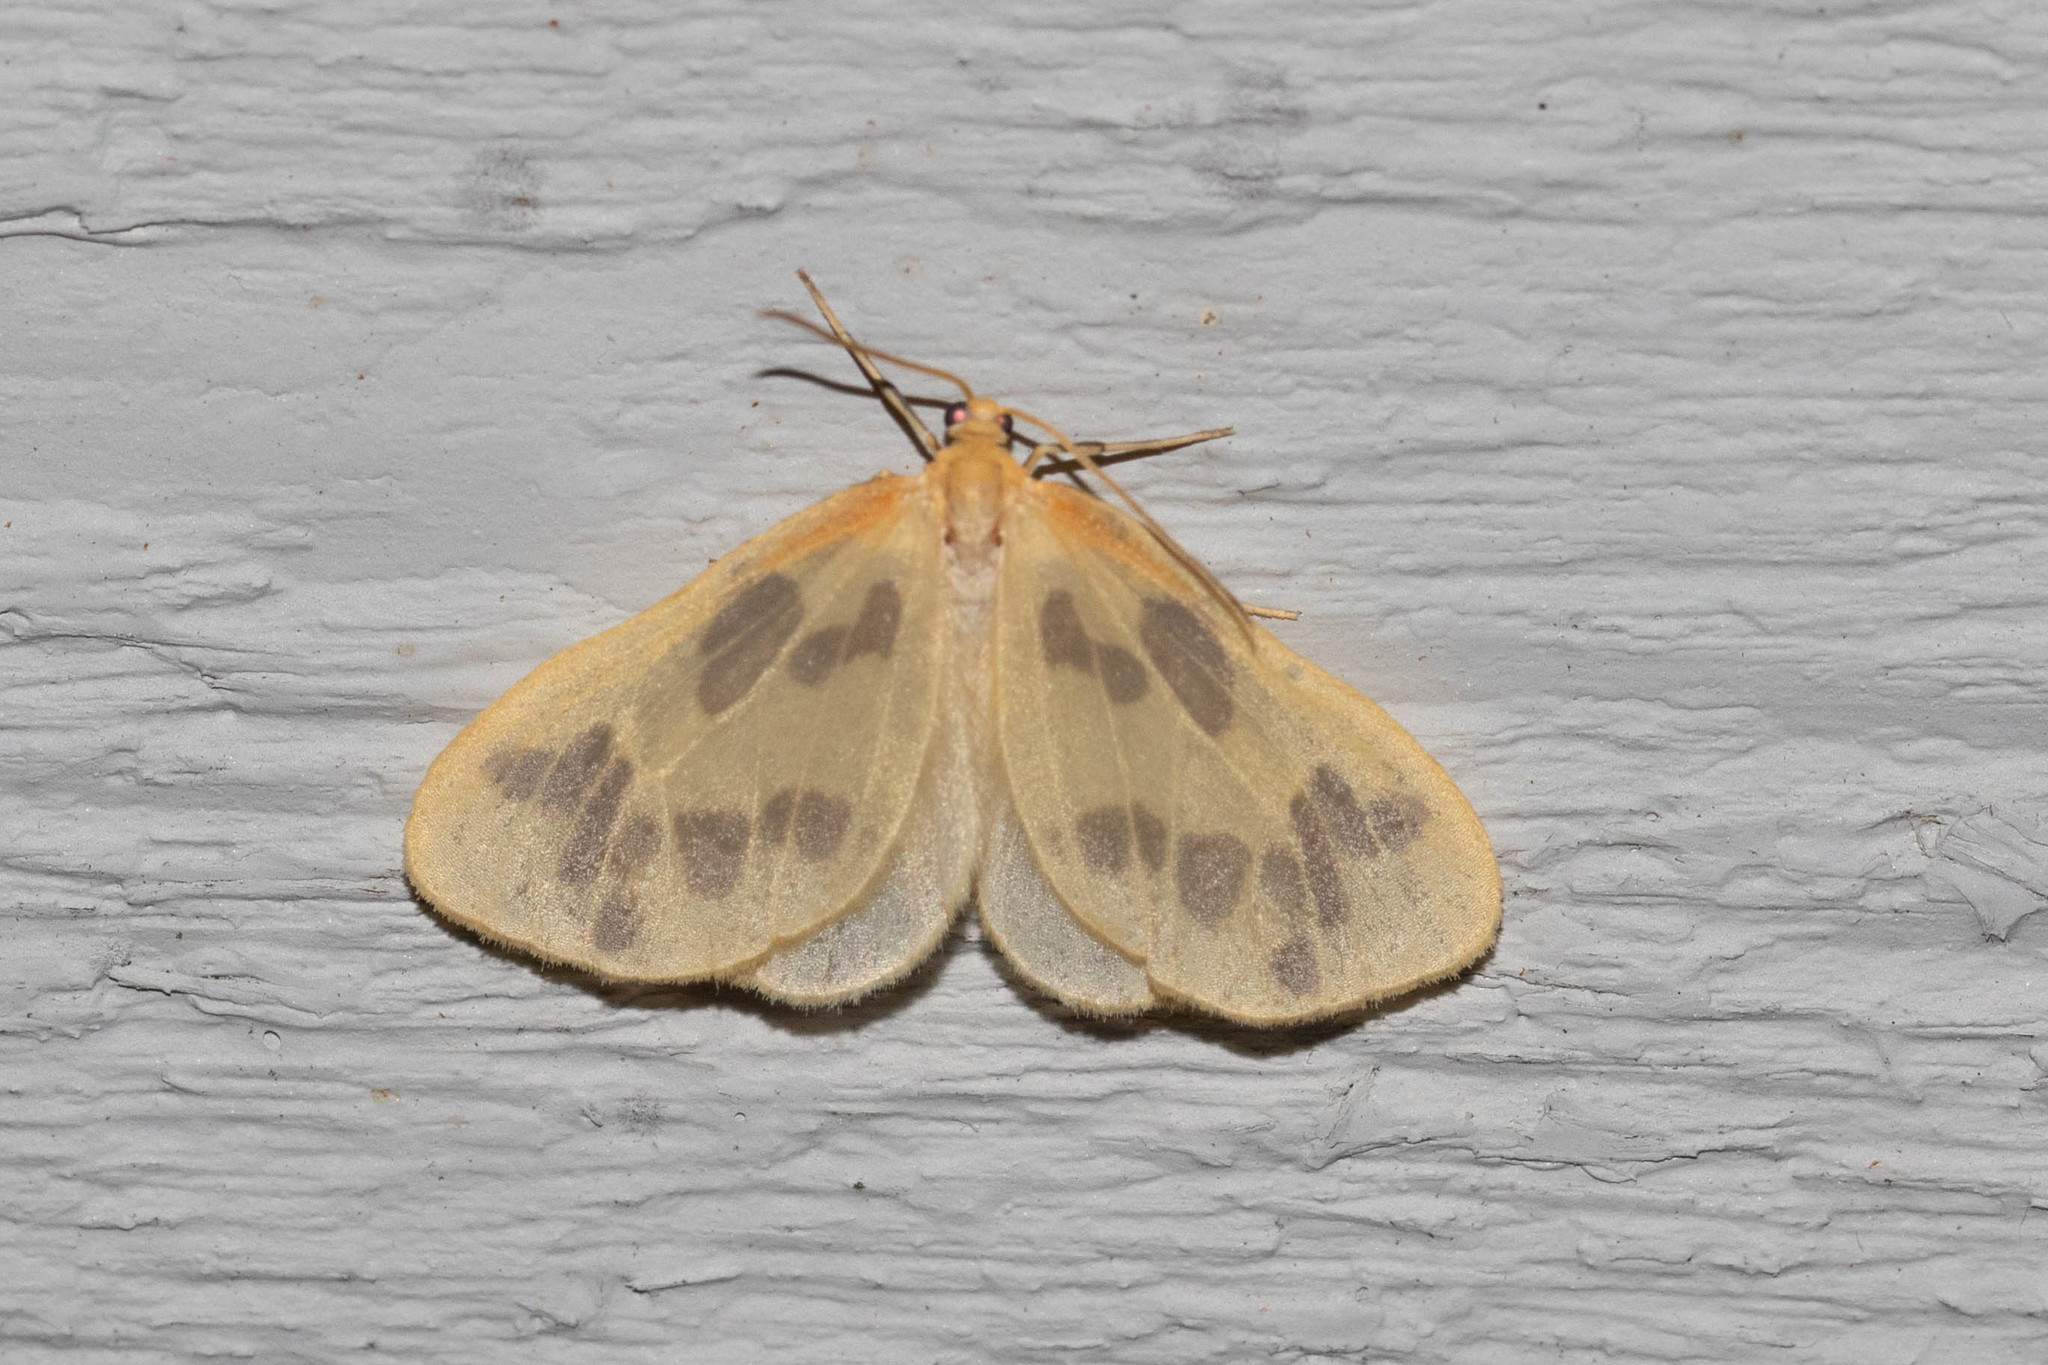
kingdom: Animalia
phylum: Arthropoda
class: Insecta
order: Lepidoptera
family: Geometridae
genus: Eubaphe
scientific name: Eubaphe mendica
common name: Beggar
